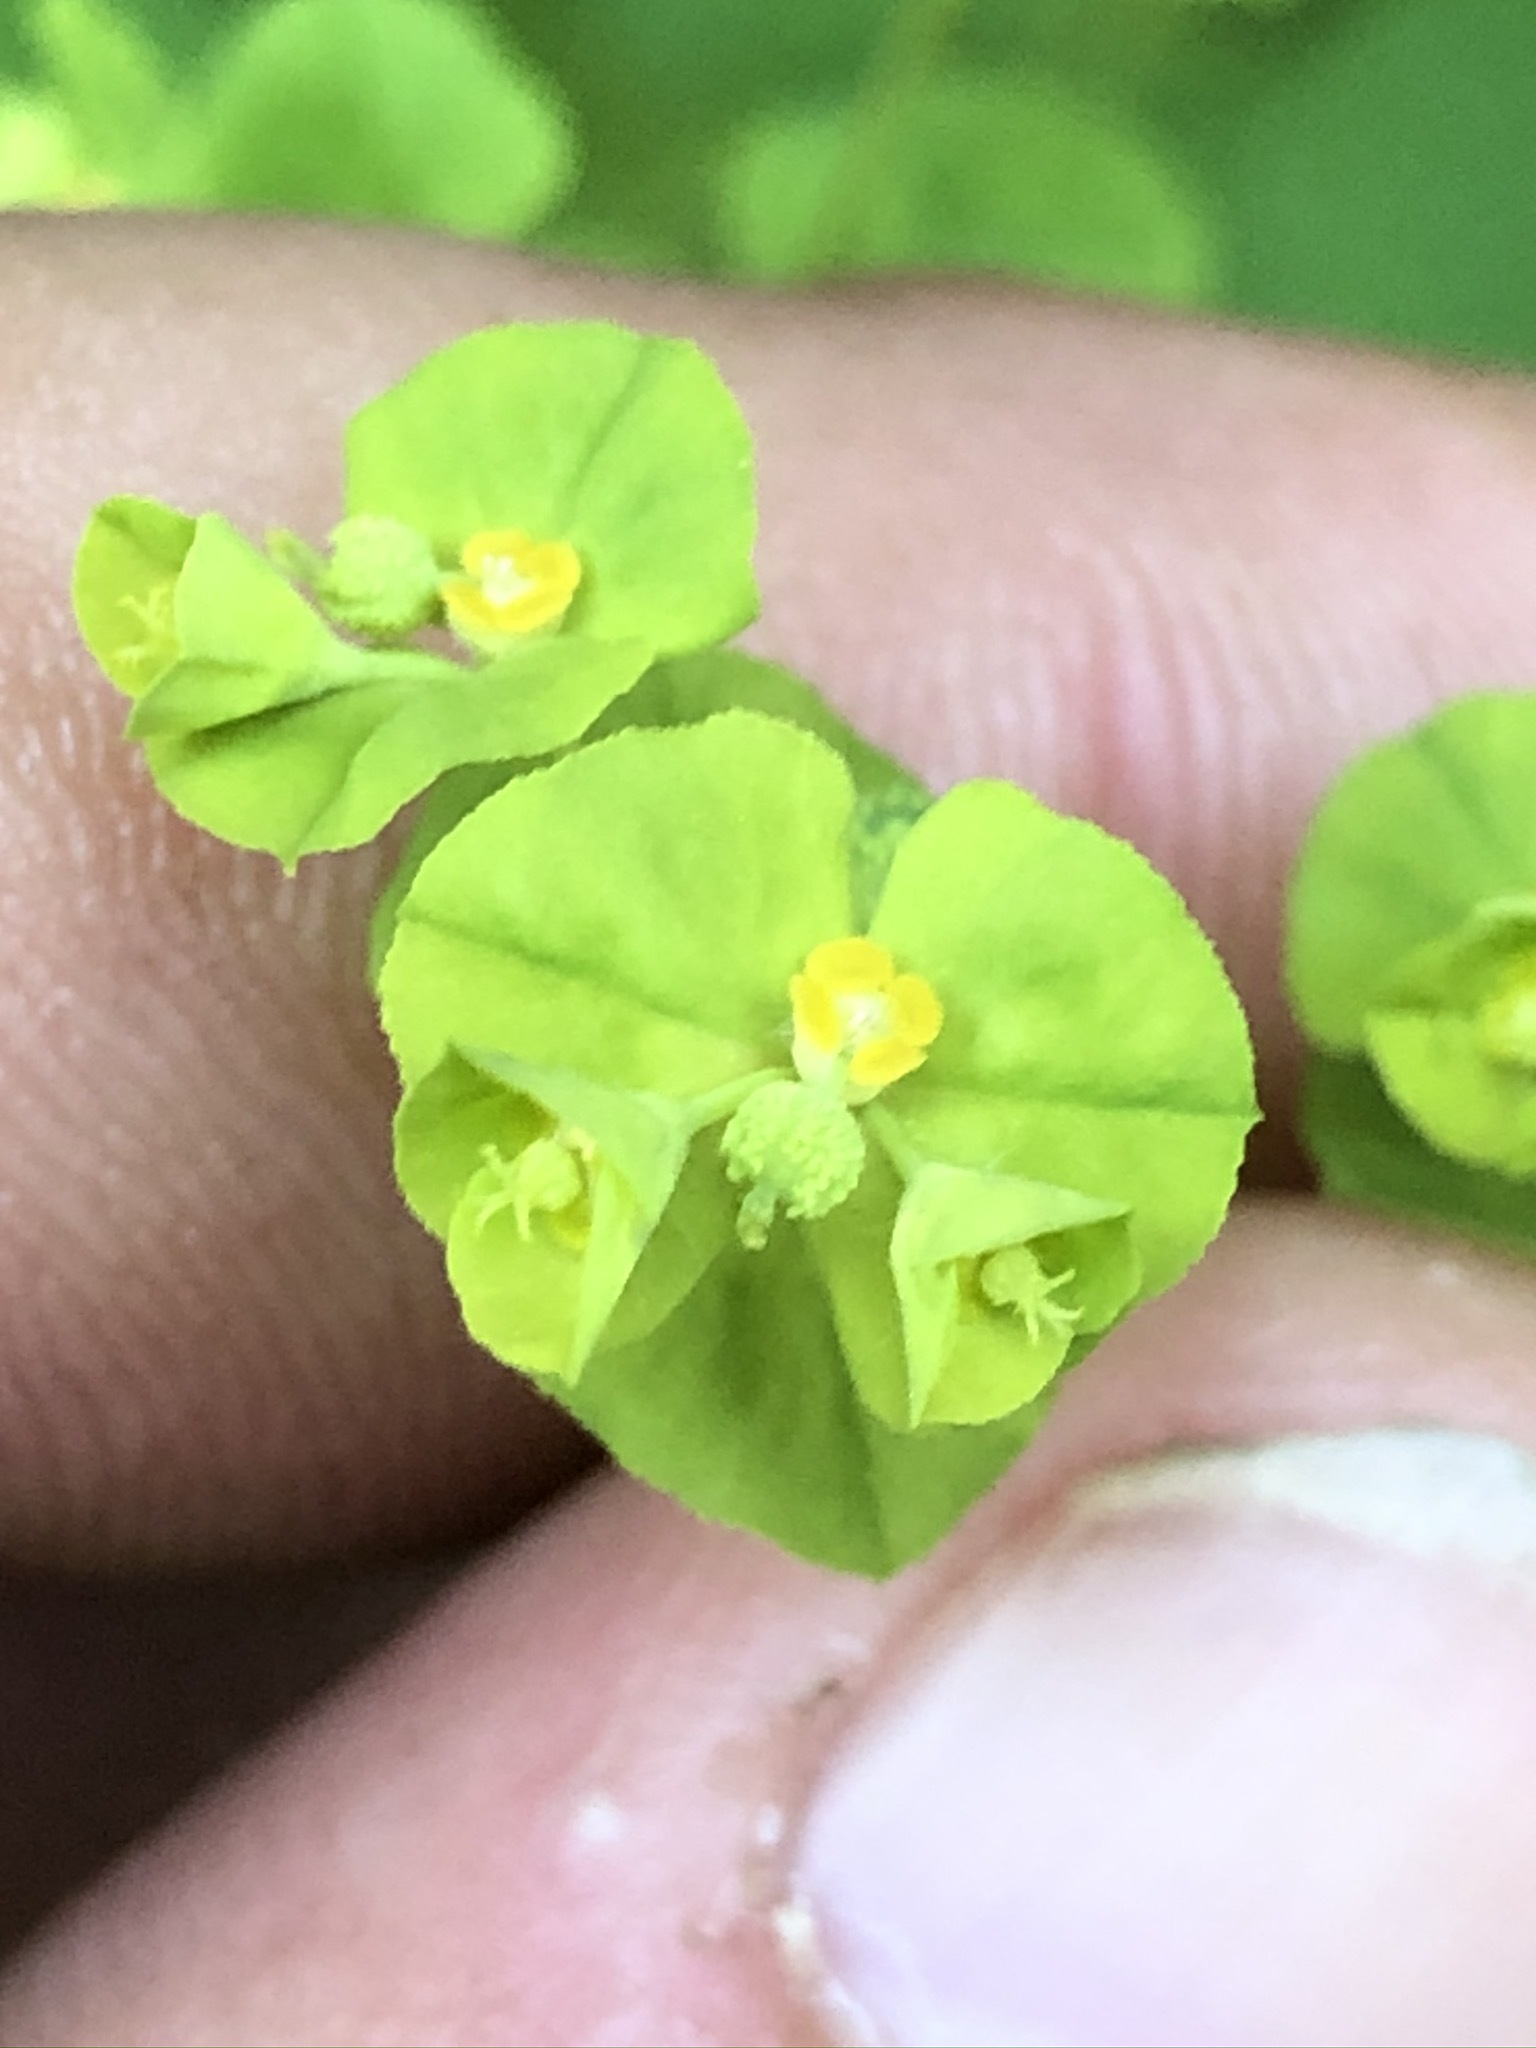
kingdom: Plantae
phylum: Tracheophyta
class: Magnoliopsida
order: Malpighiales
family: Euphorbiaceae
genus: Euphorbia
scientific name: Euphorbia stricta
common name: Upright spurge
